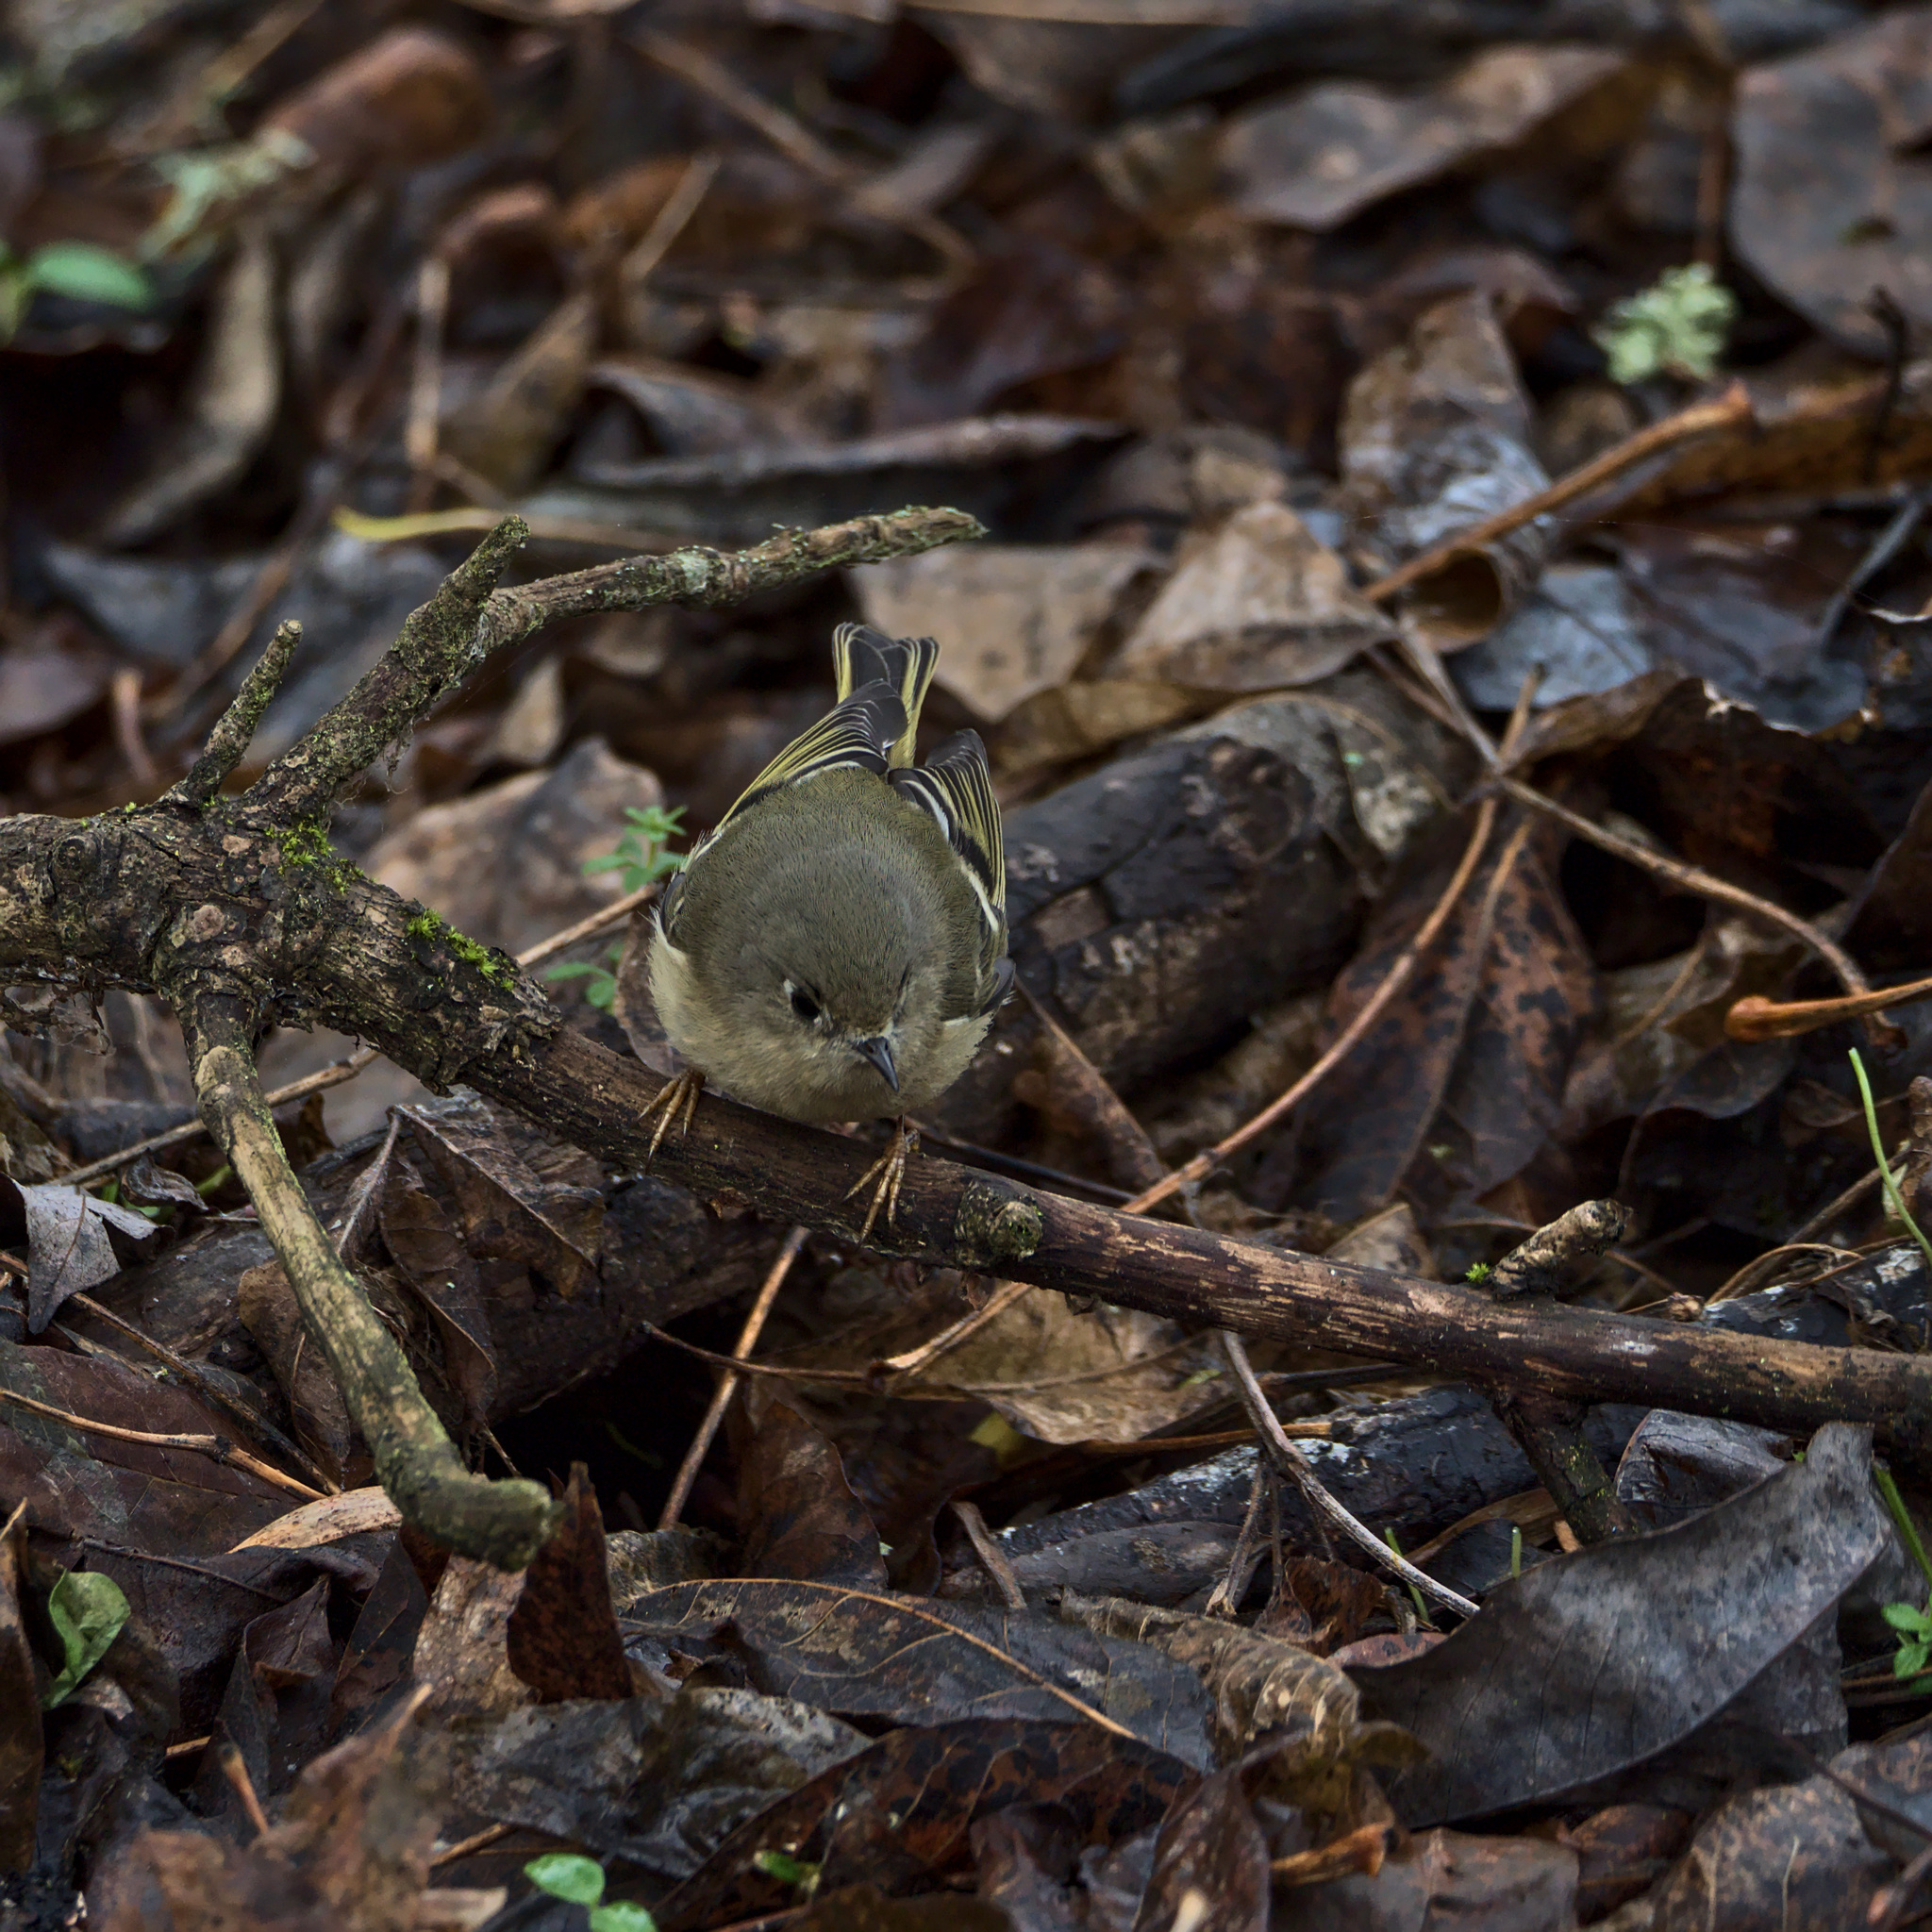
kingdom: Animalia
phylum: Chordata
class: Aves
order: Passeriformes
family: Regulidae
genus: Regulus
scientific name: Regulus calendula
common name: Ruby-crowned kinglet
